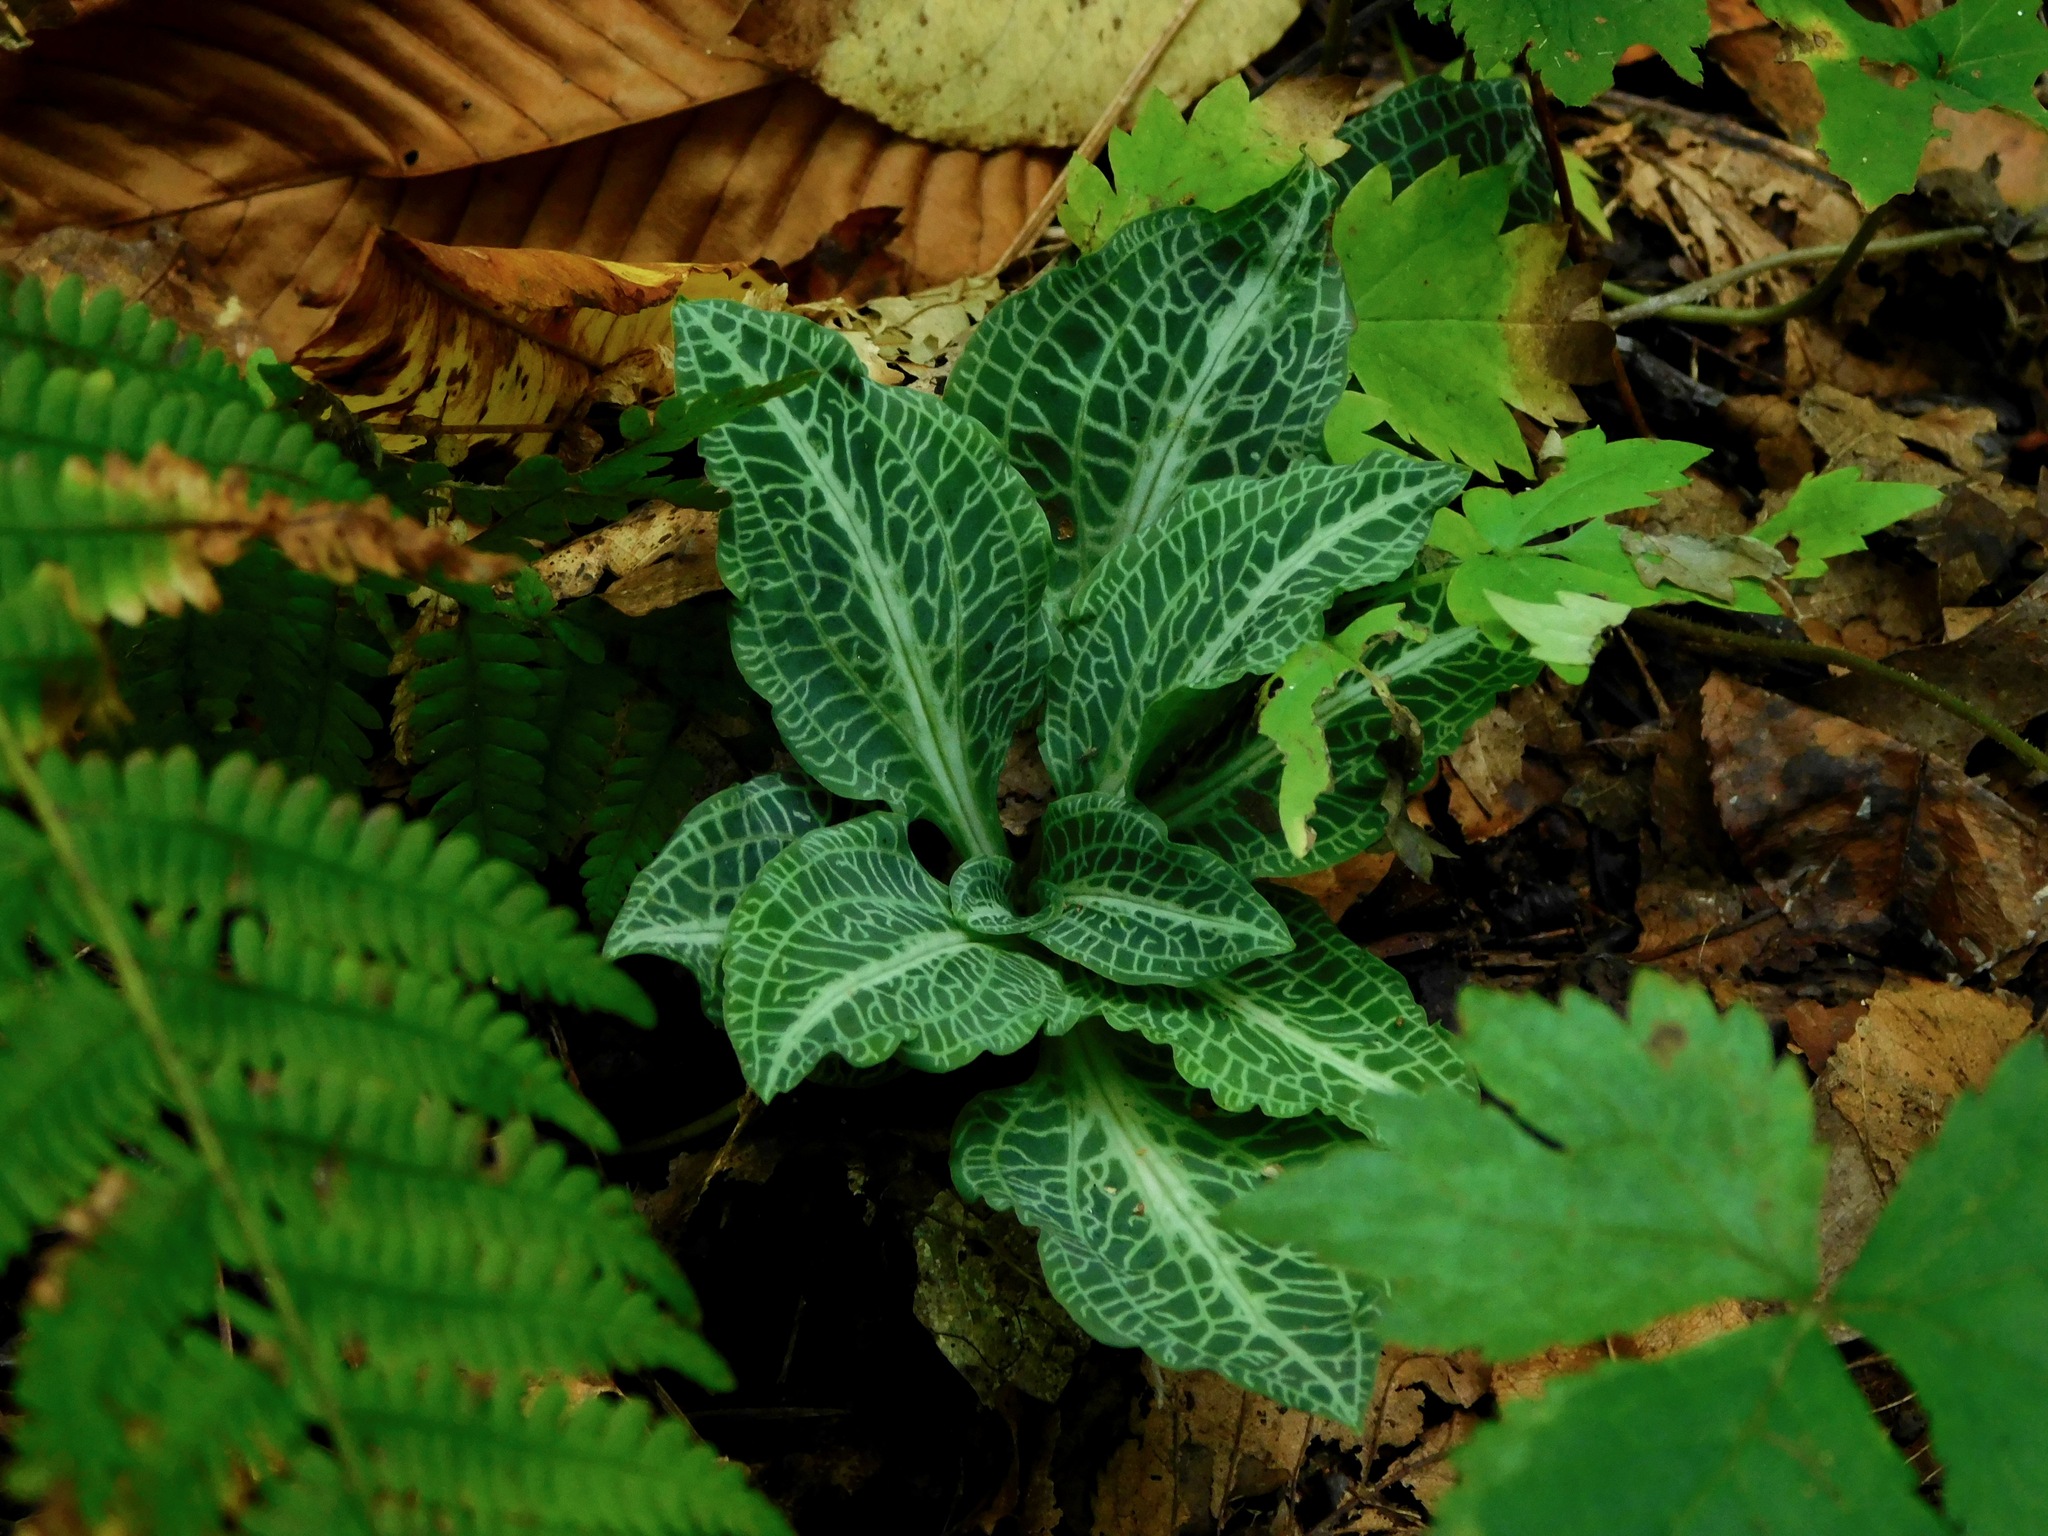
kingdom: Plantae
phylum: Tracheophyta
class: Liliopsida
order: Asparagales
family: Orchidaceae
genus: Goodyera
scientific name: Goodyera pubescens
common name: Downy rattlesnake-plantain
